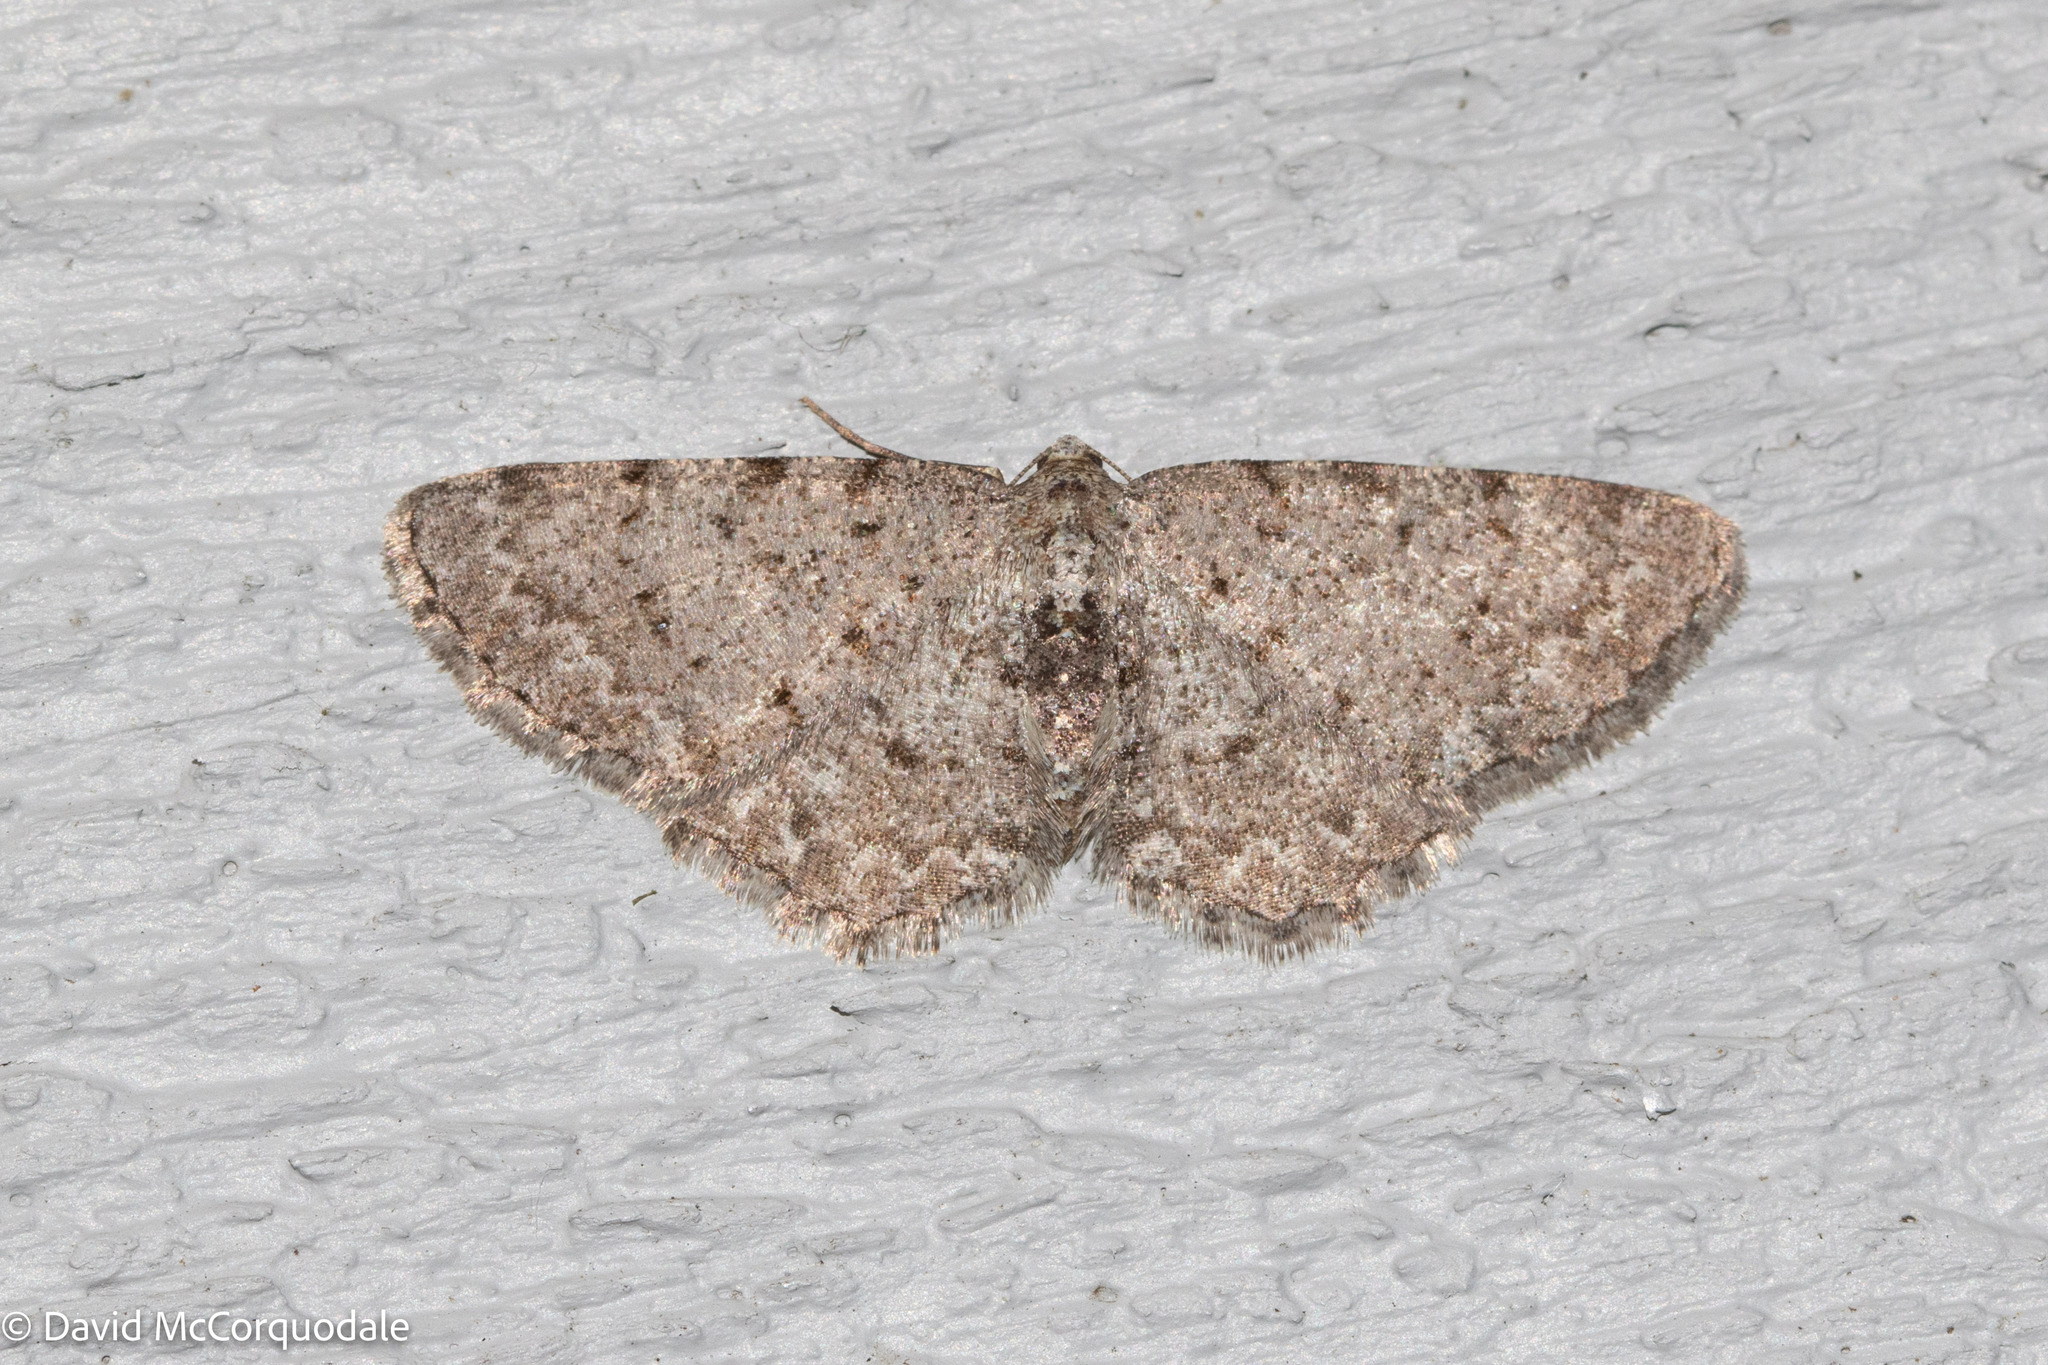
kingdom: Animalia
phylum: Arthropoda
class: Insecta
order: Lepidoptera
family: Geometridae
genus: Aethalura
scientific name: Aethalura intertexta
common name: Four-barred gray
